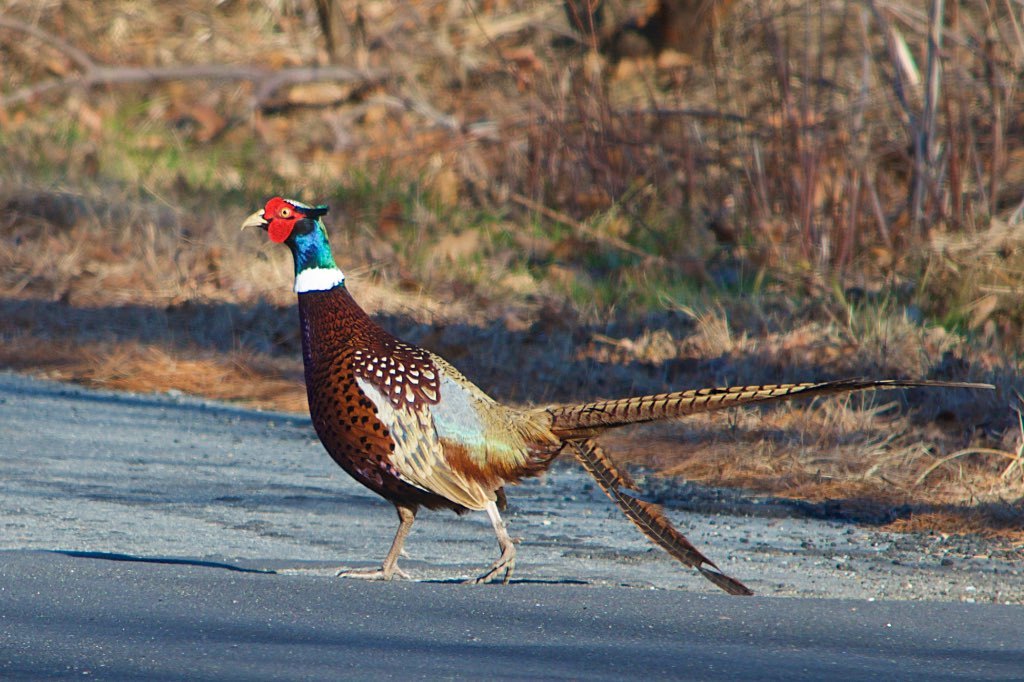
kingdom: Animalia
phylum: Chordata
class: Aves
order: Galliformes
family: Phasianidae
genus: Phasianus
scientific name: Phasianus colchicus
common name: Common pheasant
